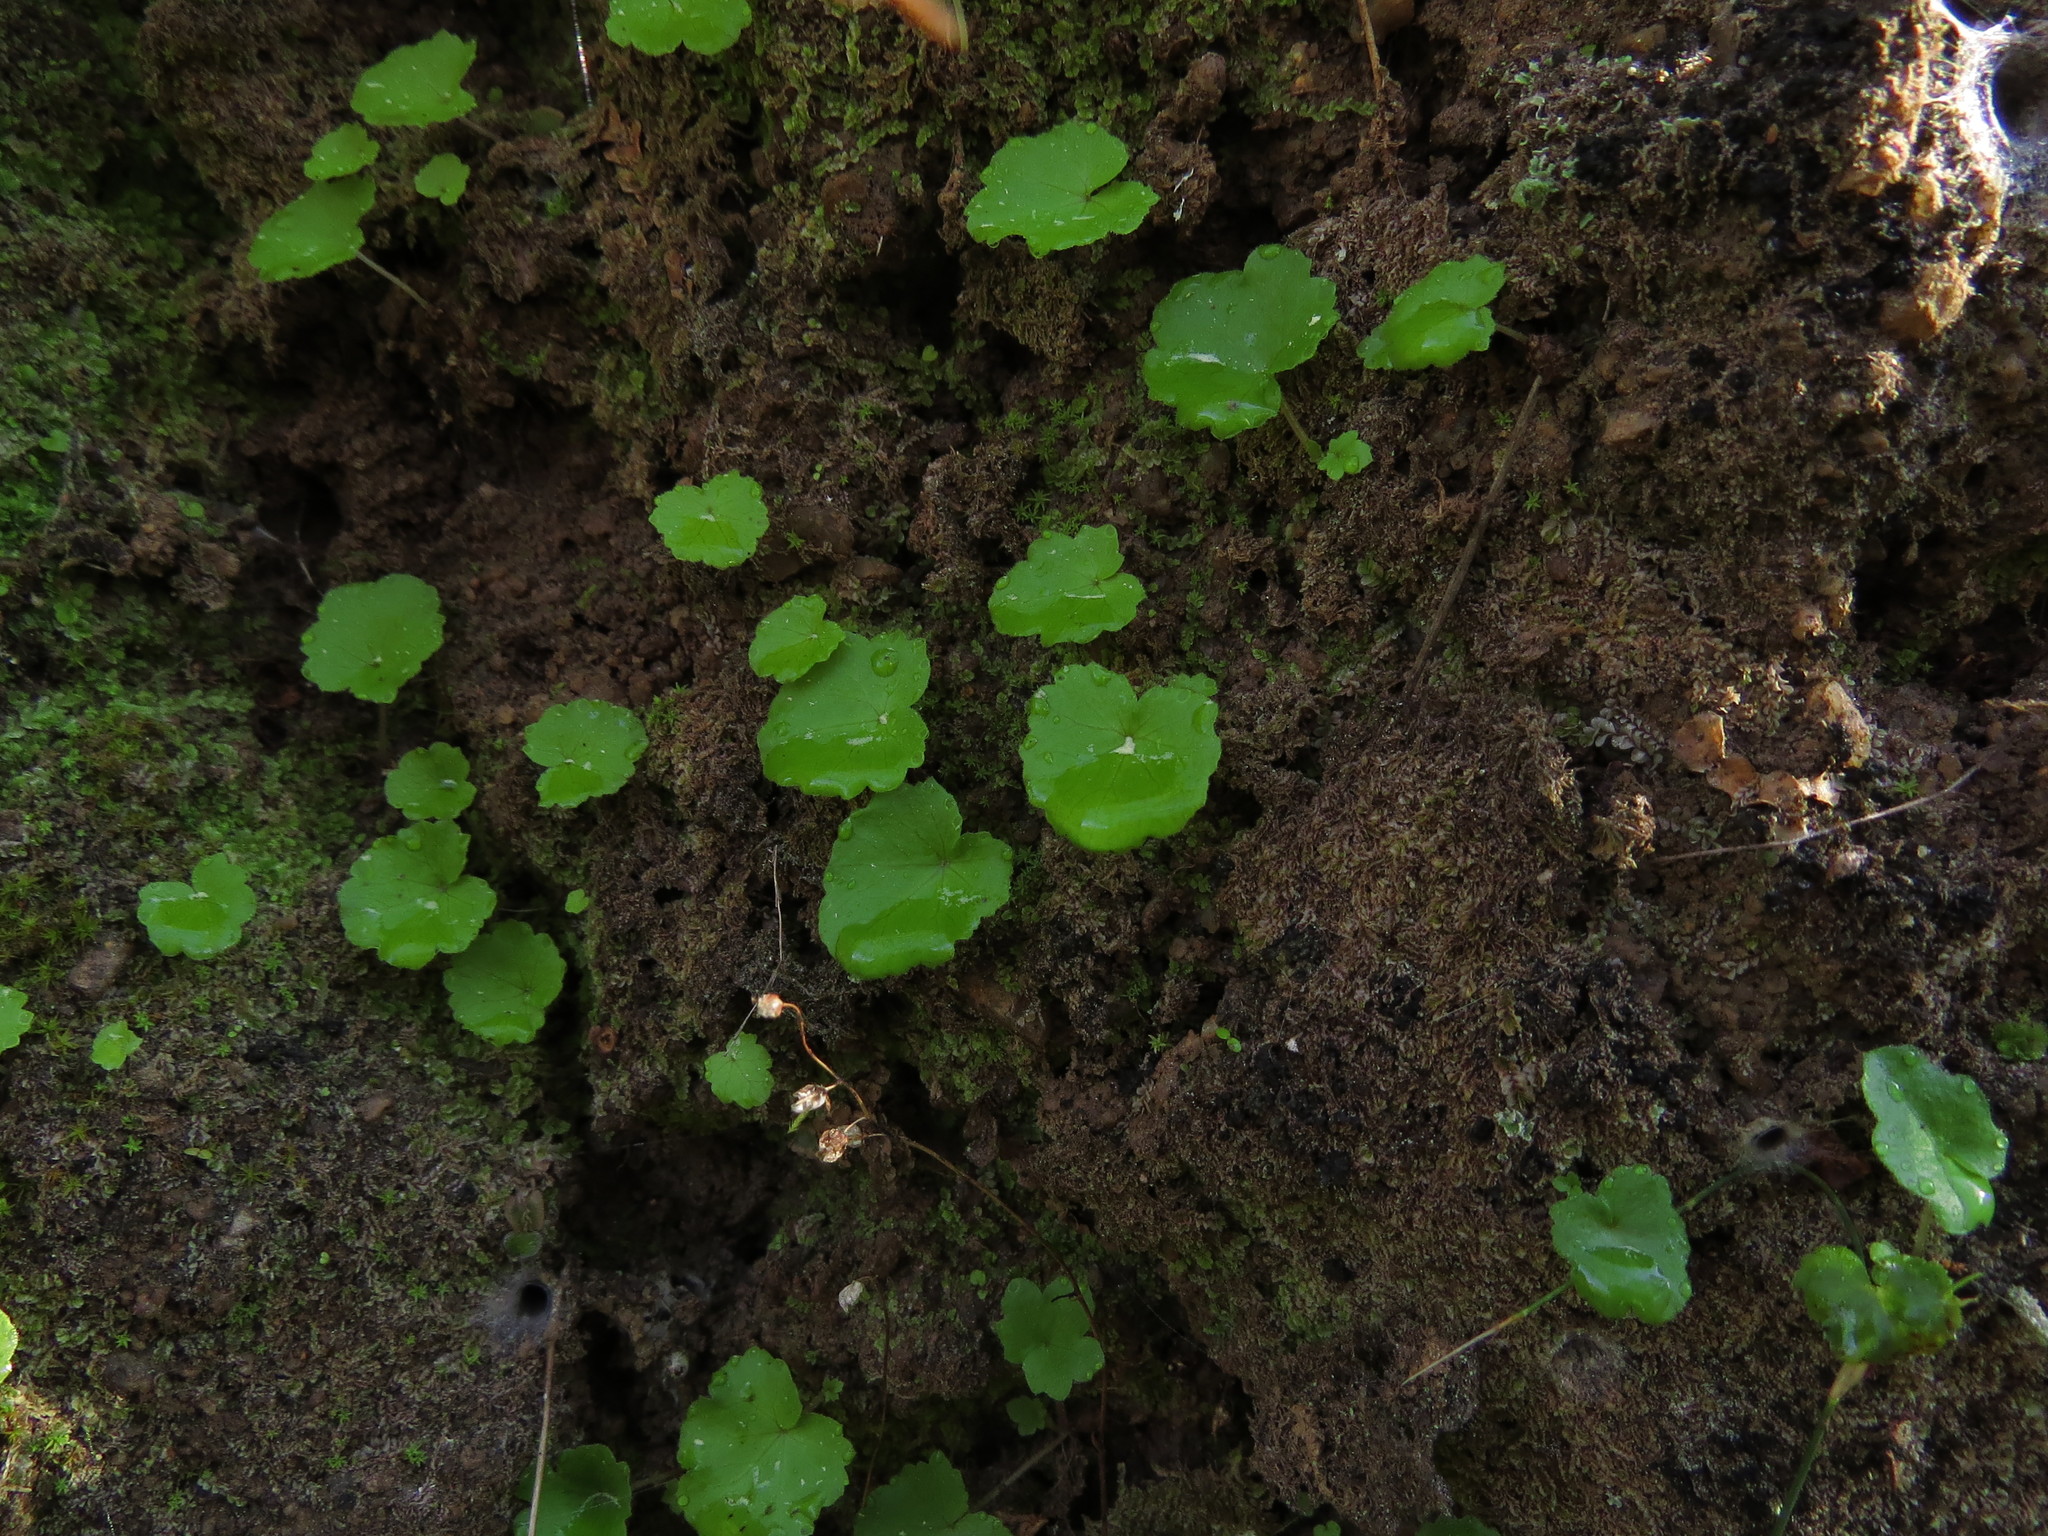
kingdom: Plantae
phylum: Tracheophyta
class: Magnoliopsida
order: Geraniales
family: Francoaceae
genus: Tetilla
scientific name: Tetilla hydrocotylifolia
